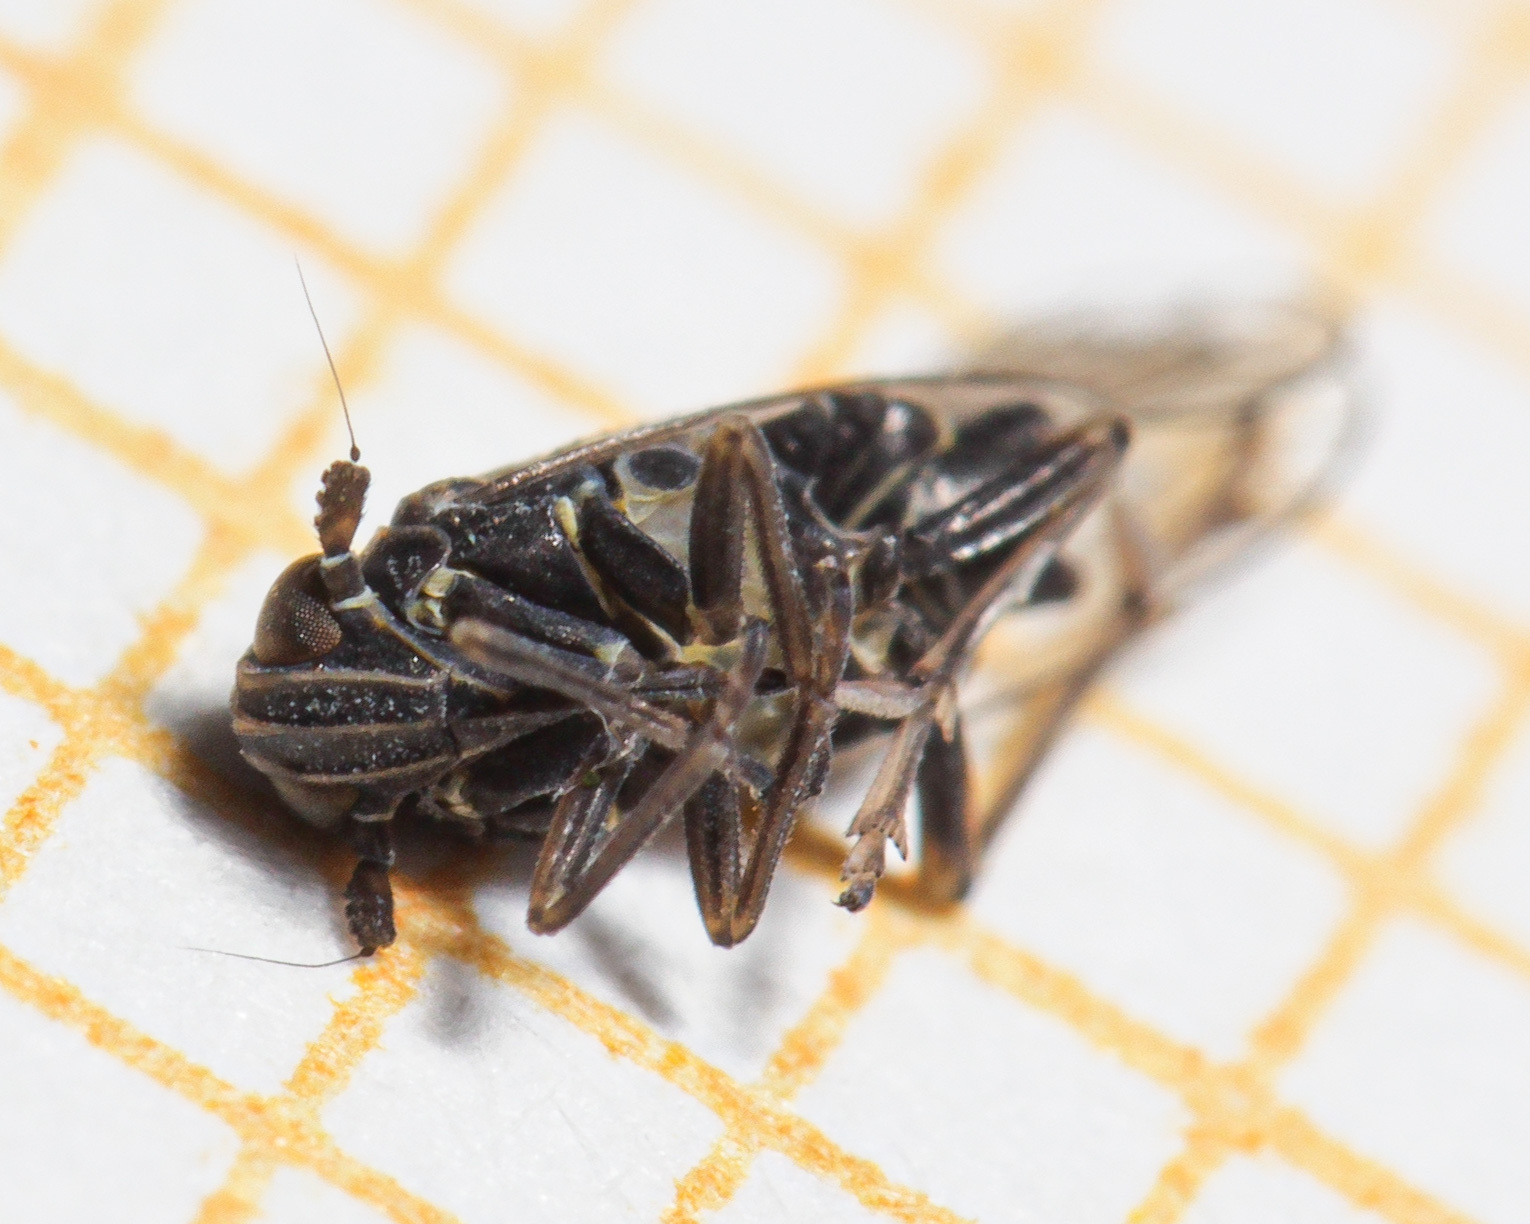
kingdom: Animalia
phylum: Arthropoda
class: Insecta
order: Hemiptera
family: Delphacidae
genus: Javesella
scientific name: Javesella dubia
